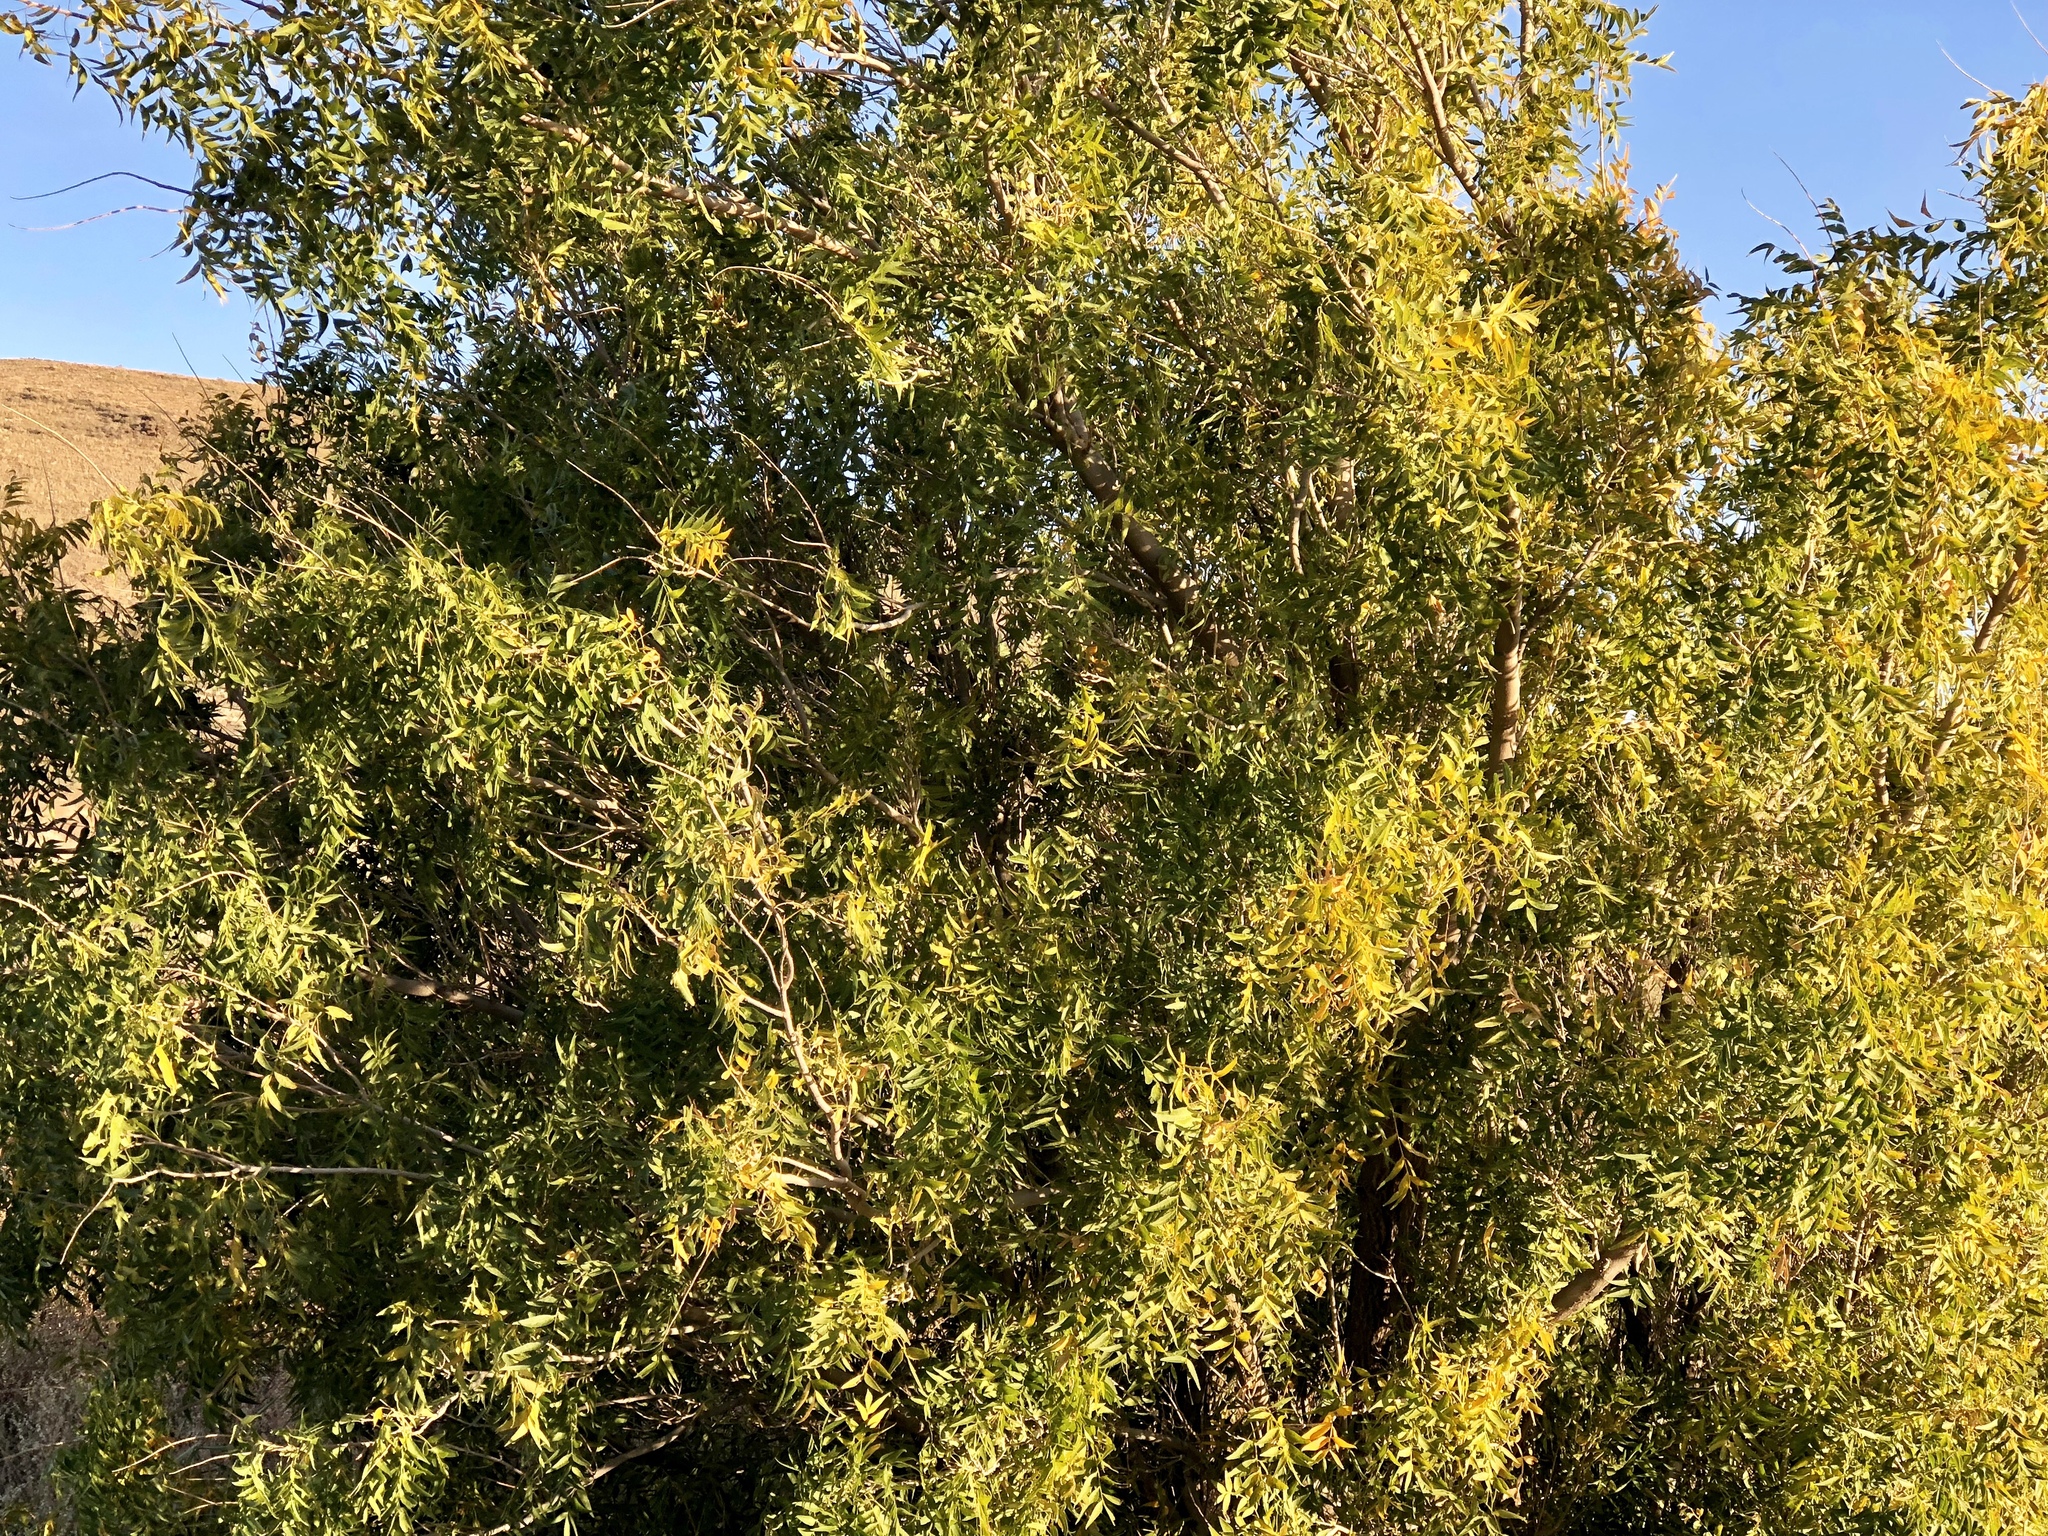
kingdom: Plantae
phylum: Tracheophyta
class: Magnoliopsida
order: Sapindales
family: Sapindaceae
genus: Sapindus
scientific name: Sapindus drummondii
